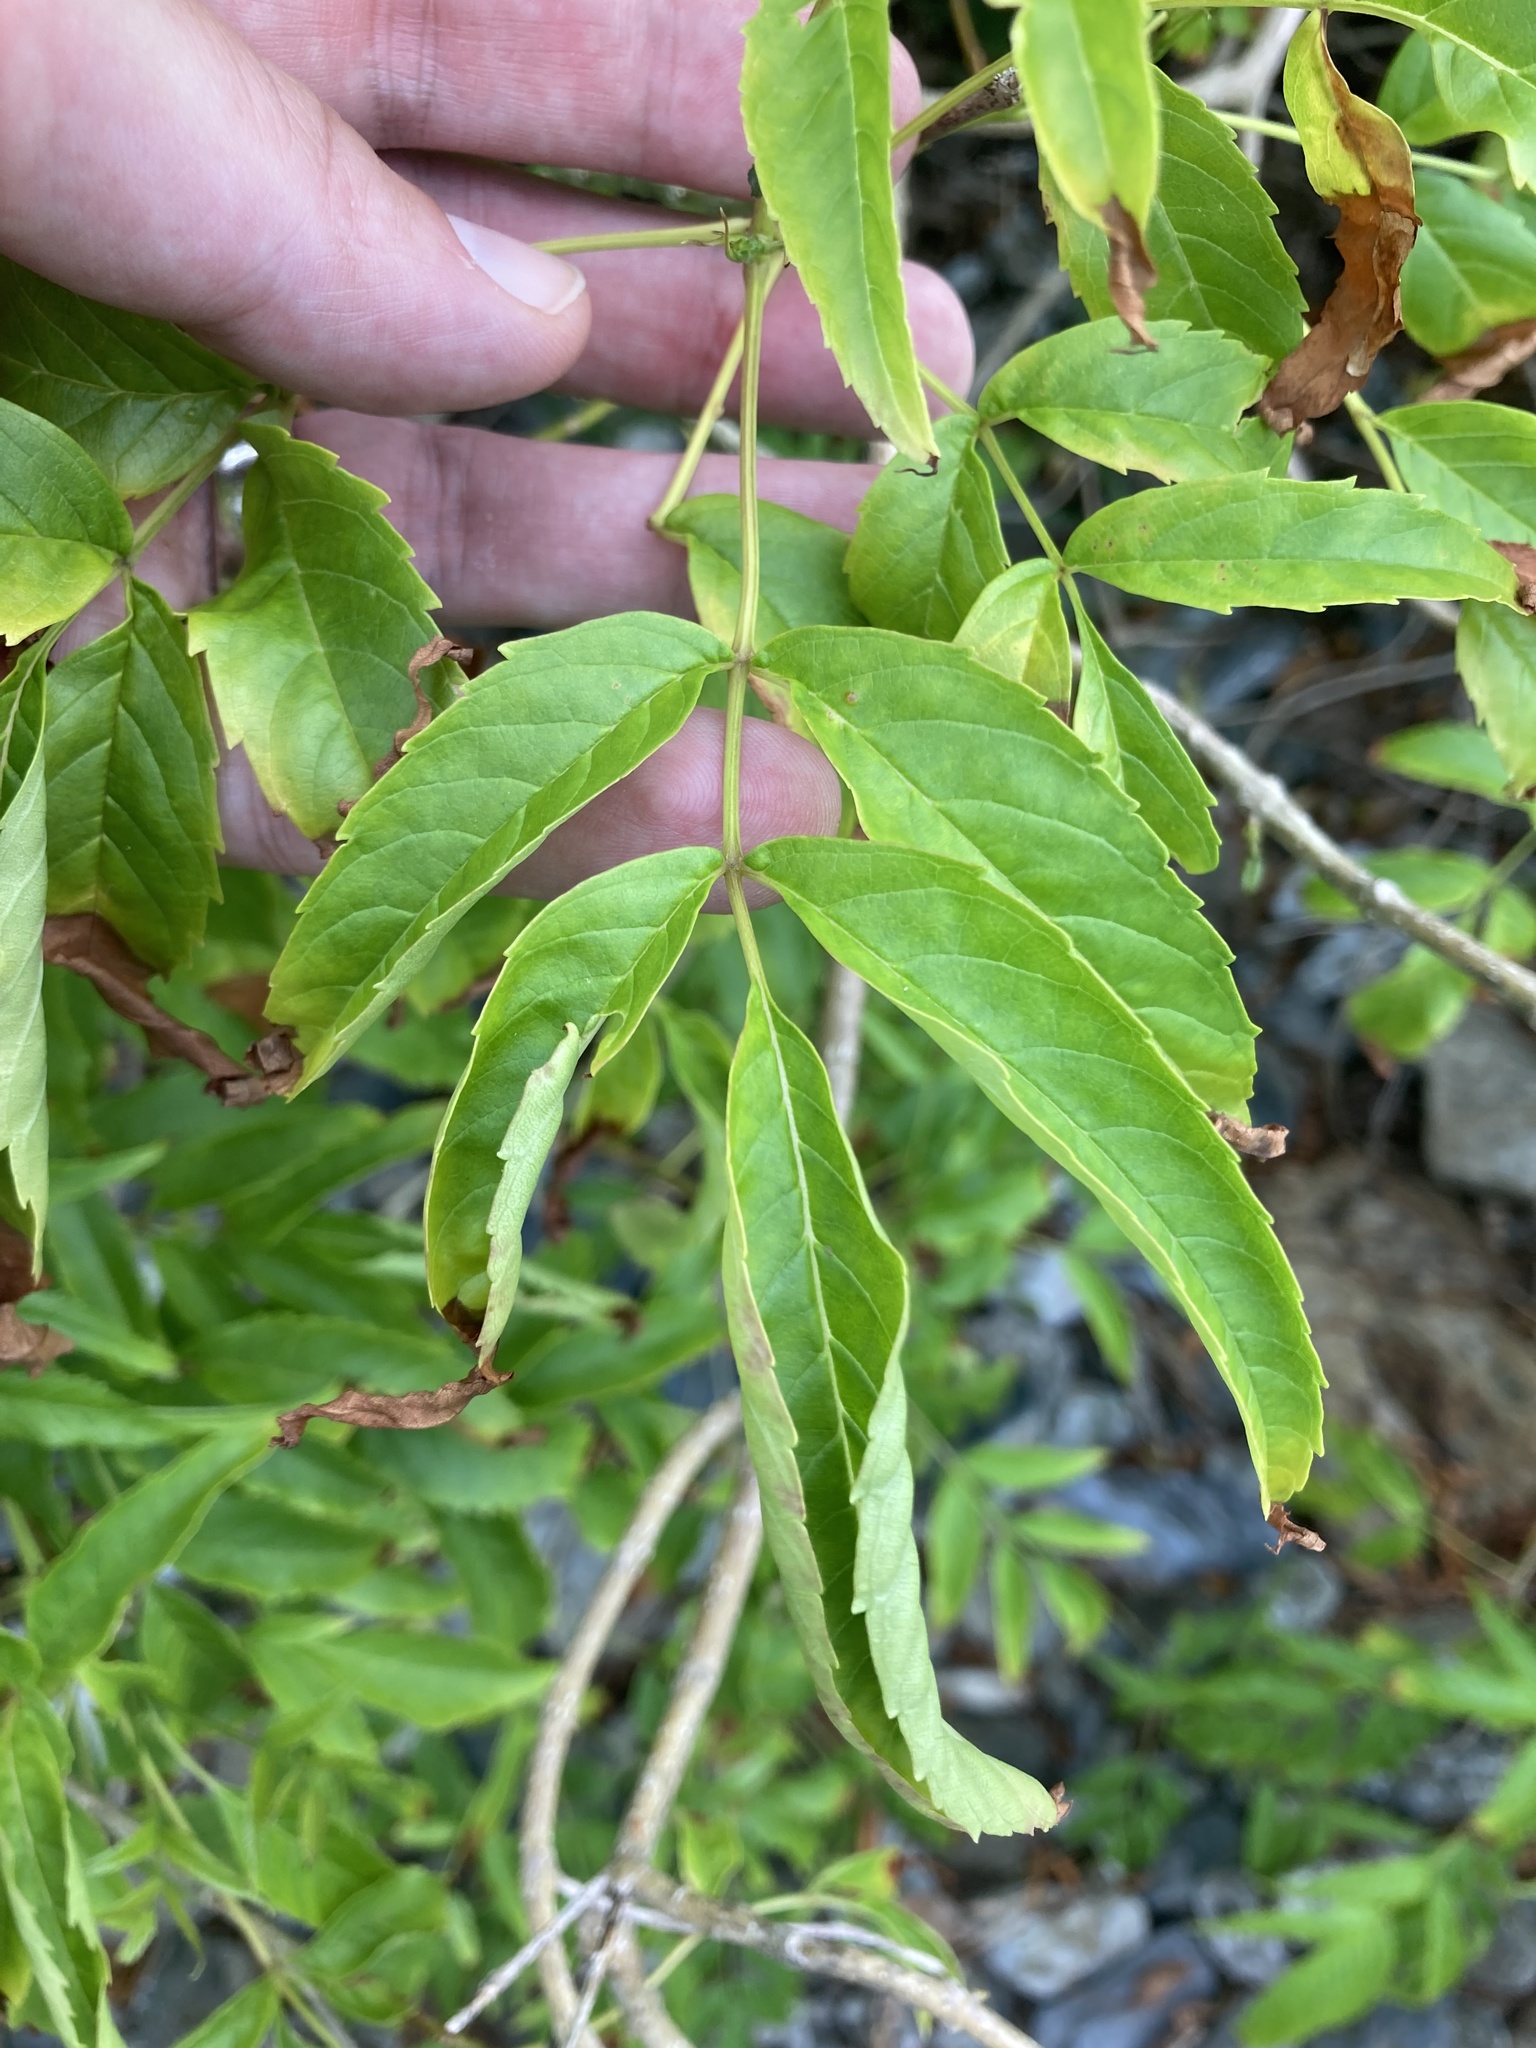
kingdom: Plantae
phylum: Tracheophyta
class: Magnoliopsida
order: Lamiales
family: Bignoniaceae
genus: Tecoma
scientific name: Tecoma stans
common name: Yellow trumpetbush
